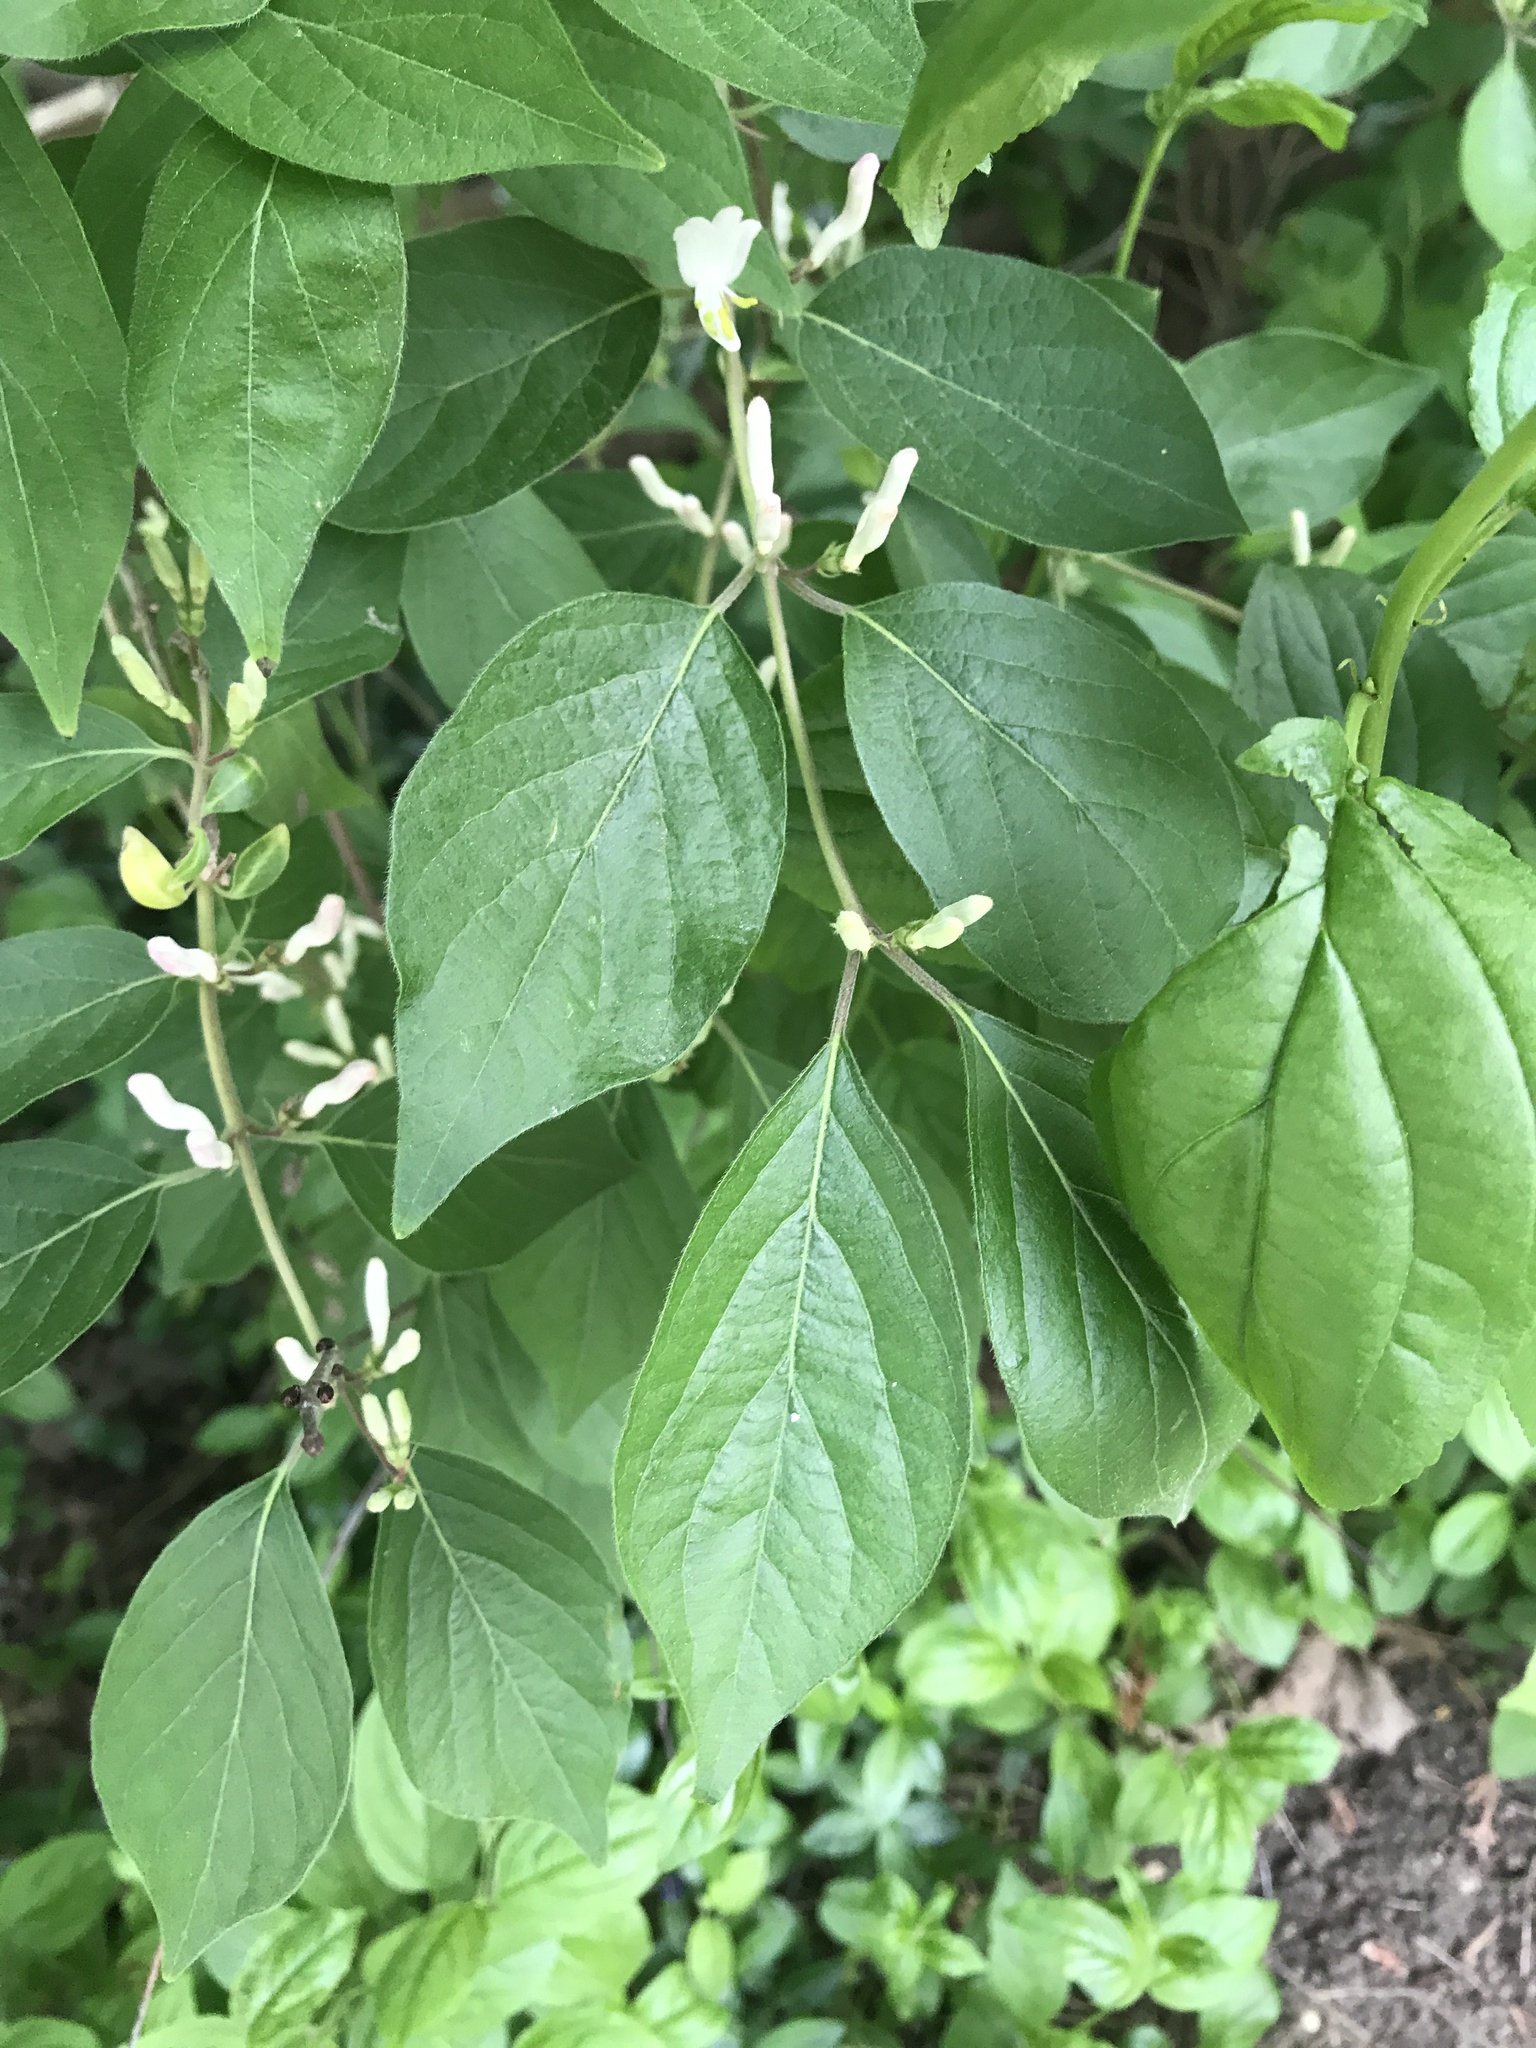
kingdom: Plantae
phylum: Tracheophyta
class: Magnoliopsida
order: Dipsacales
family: Caprifoliaceae
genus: Lonicera
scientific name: Lonicera maackii
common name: Amur honeysuckle
